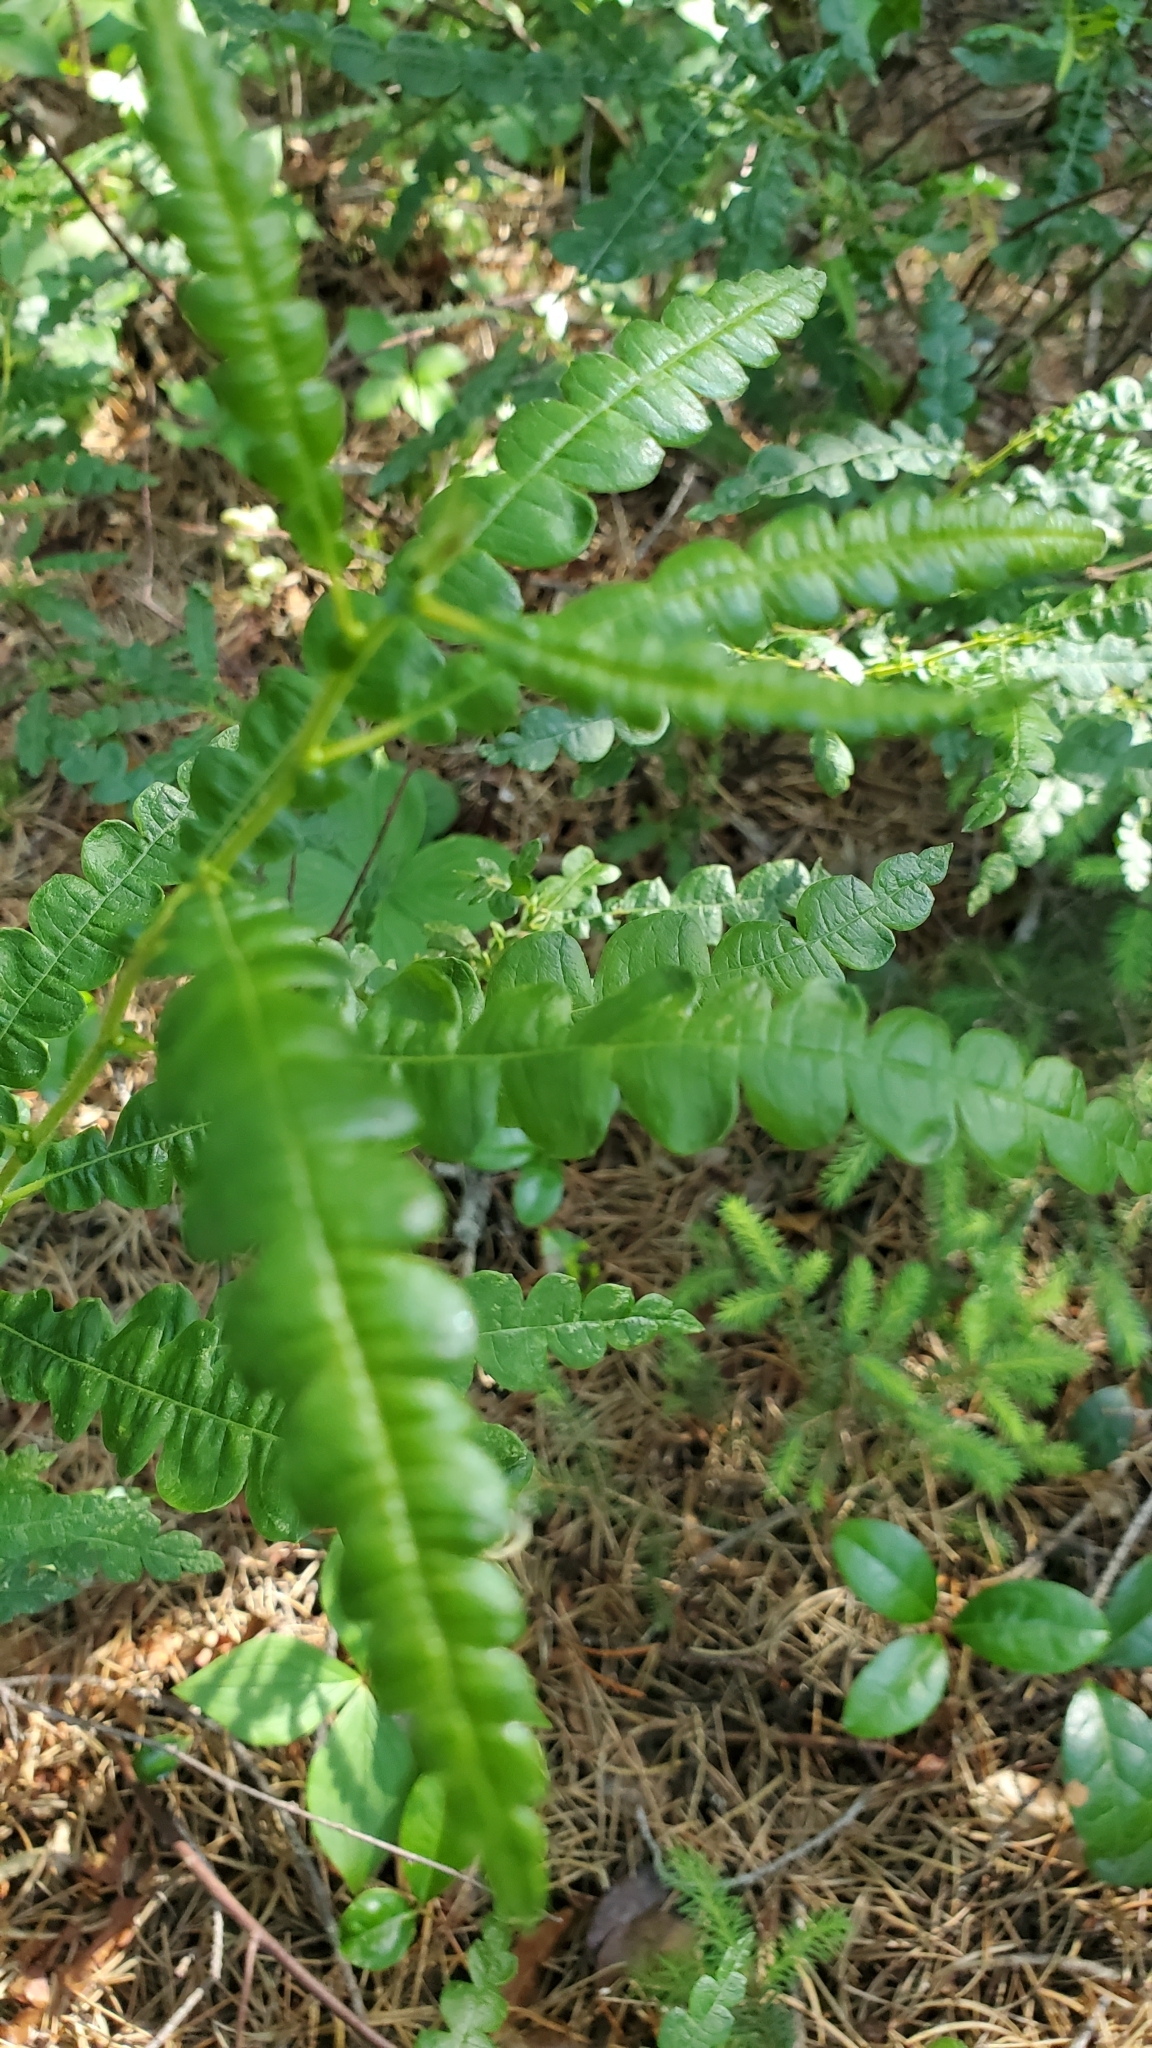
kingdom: Plantae
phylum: Tracheophyta
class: Magnoliopsida
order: Fagales
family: Myricaceae
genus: Comptonia
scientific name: Comptonia peregrina
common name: Sweet-fern
